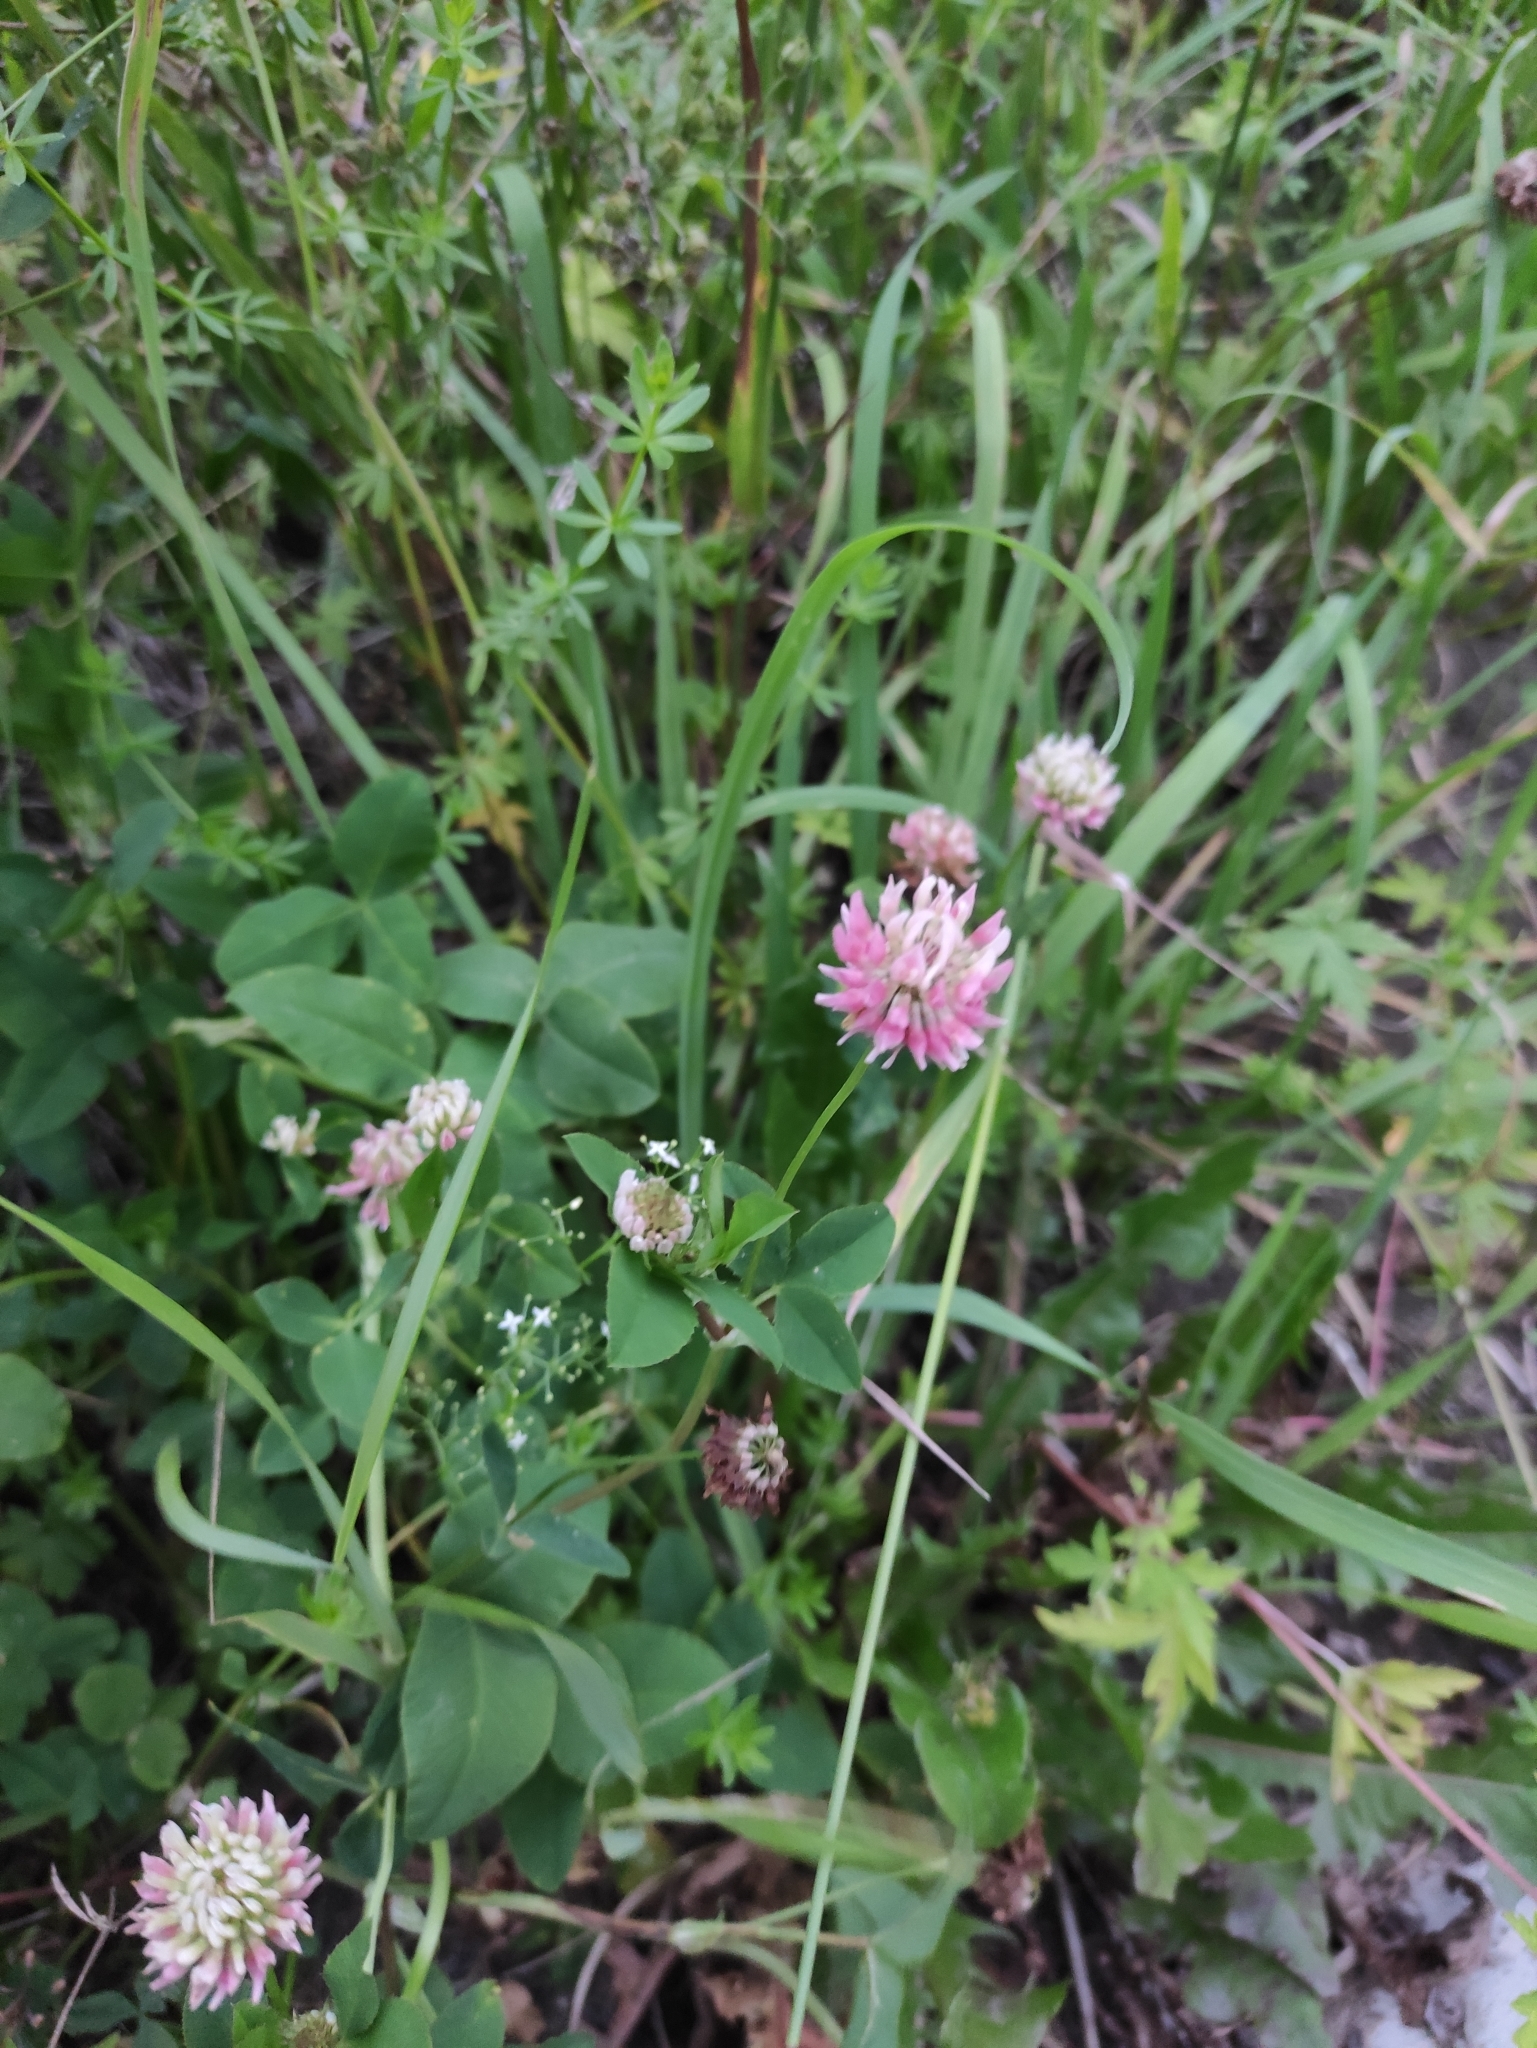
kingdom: Plantae
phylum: Tracheophyta
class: Magnoliopsida
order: Fabales
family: Fabaceae
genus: Trifolium
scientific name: Trifolium hybridum
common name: Alsike clover
